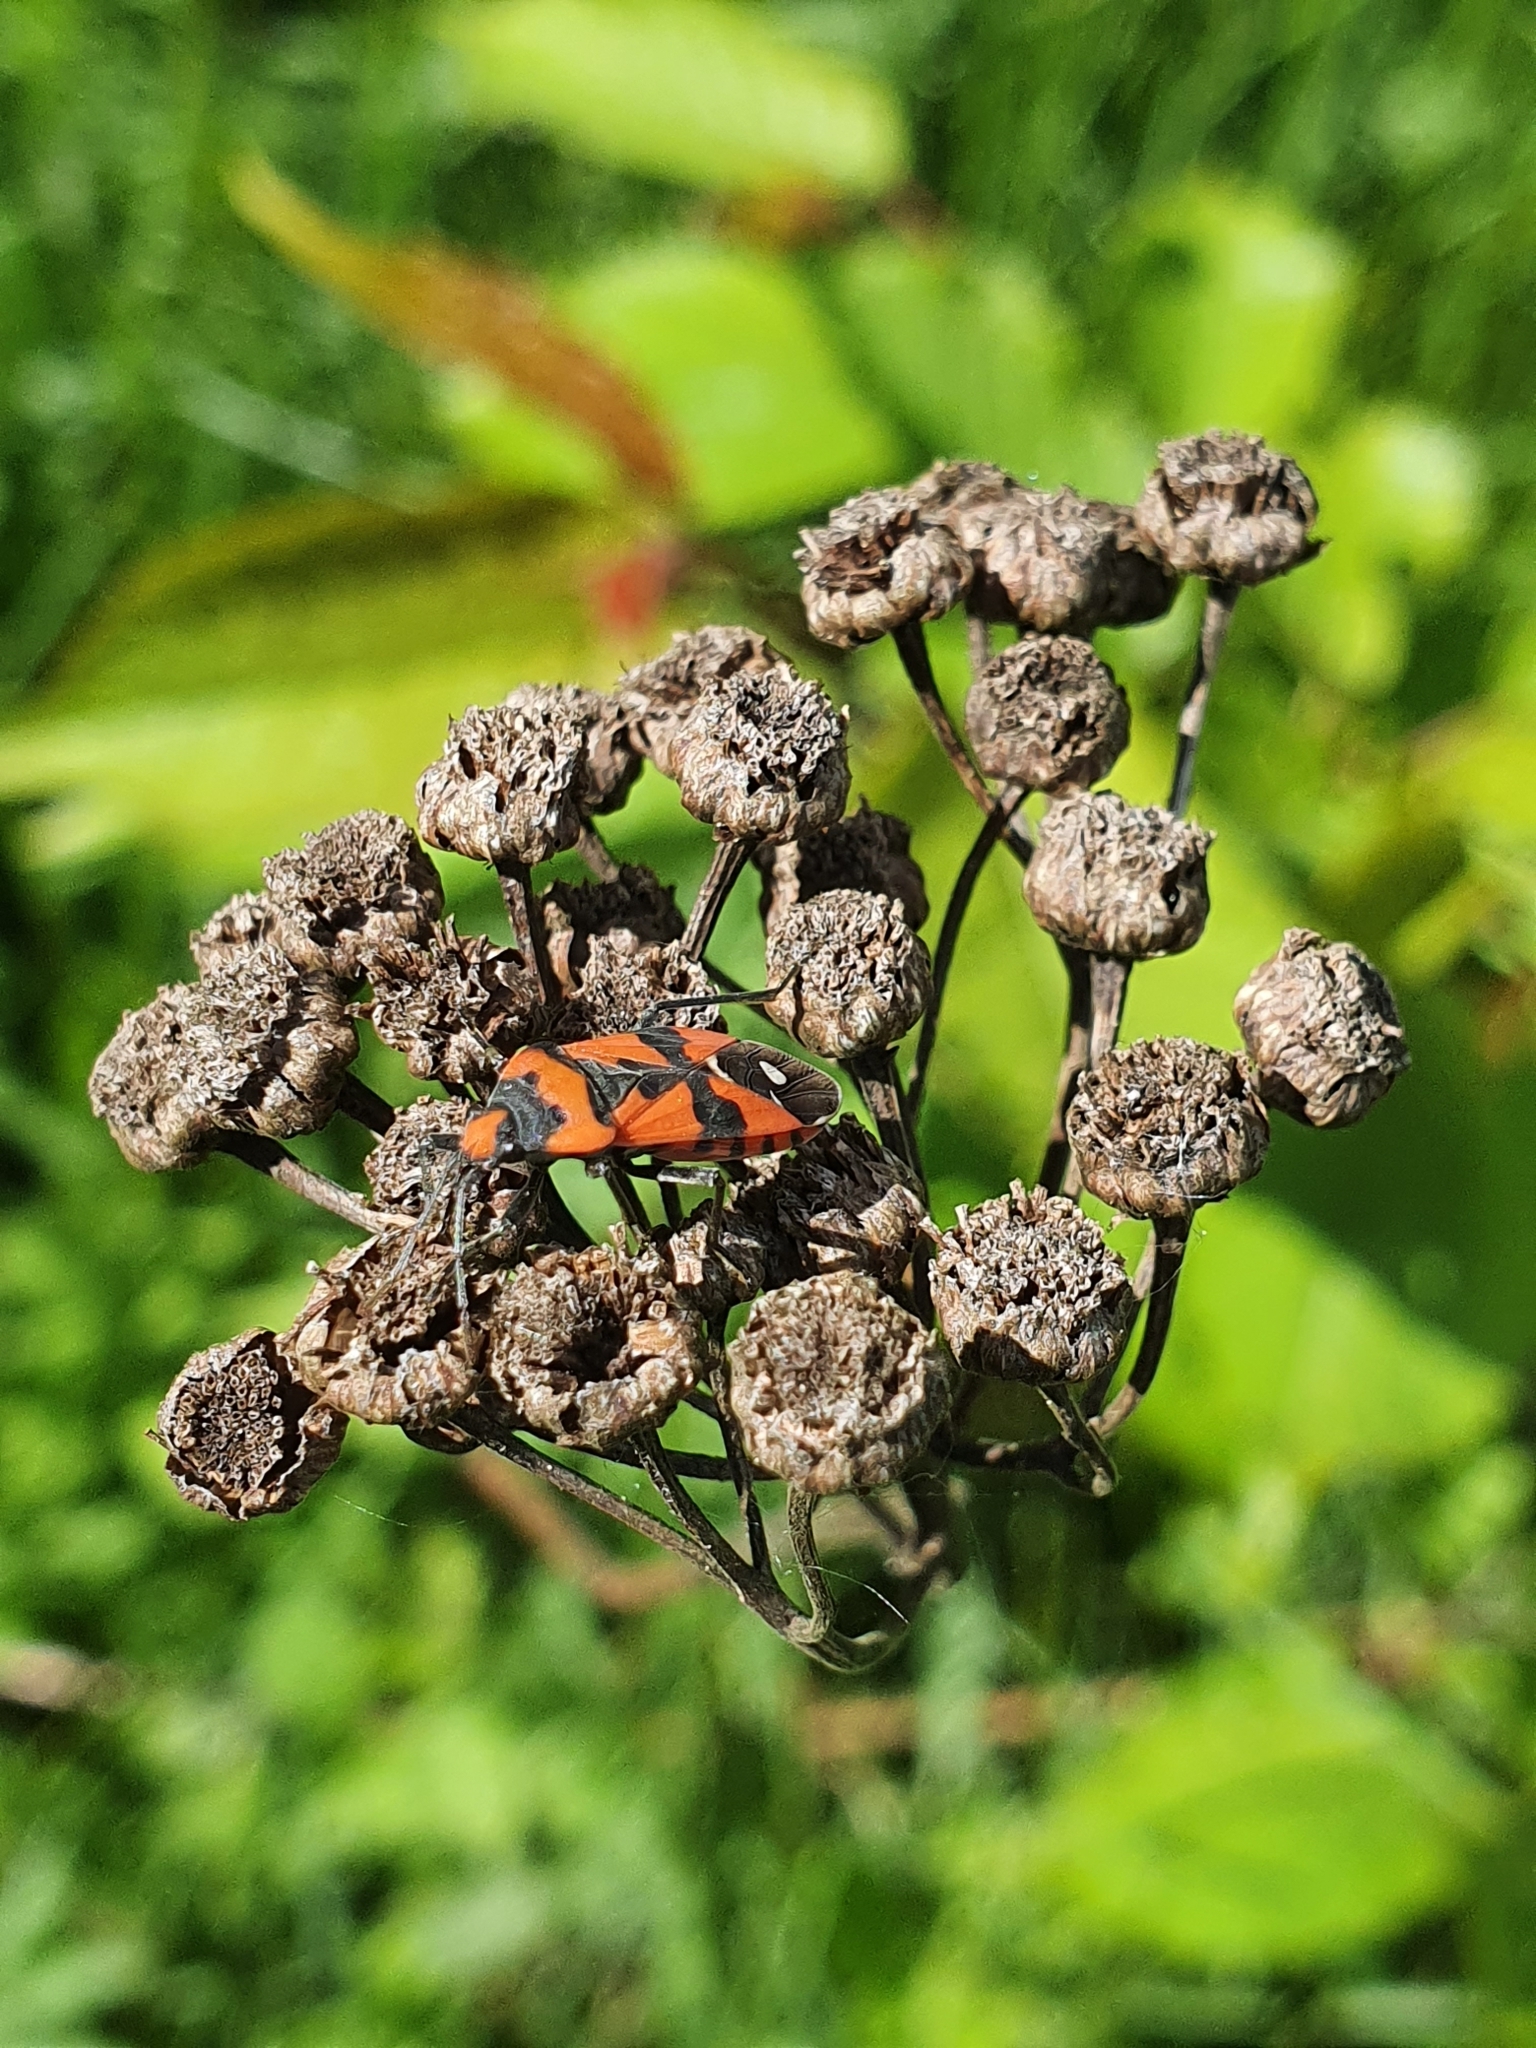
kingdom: Animalia
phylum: Arthropoda
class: Insecta
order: Hemiptera
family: Lygaeidae
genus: Lygaeus
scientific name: Lygaeus equestris
